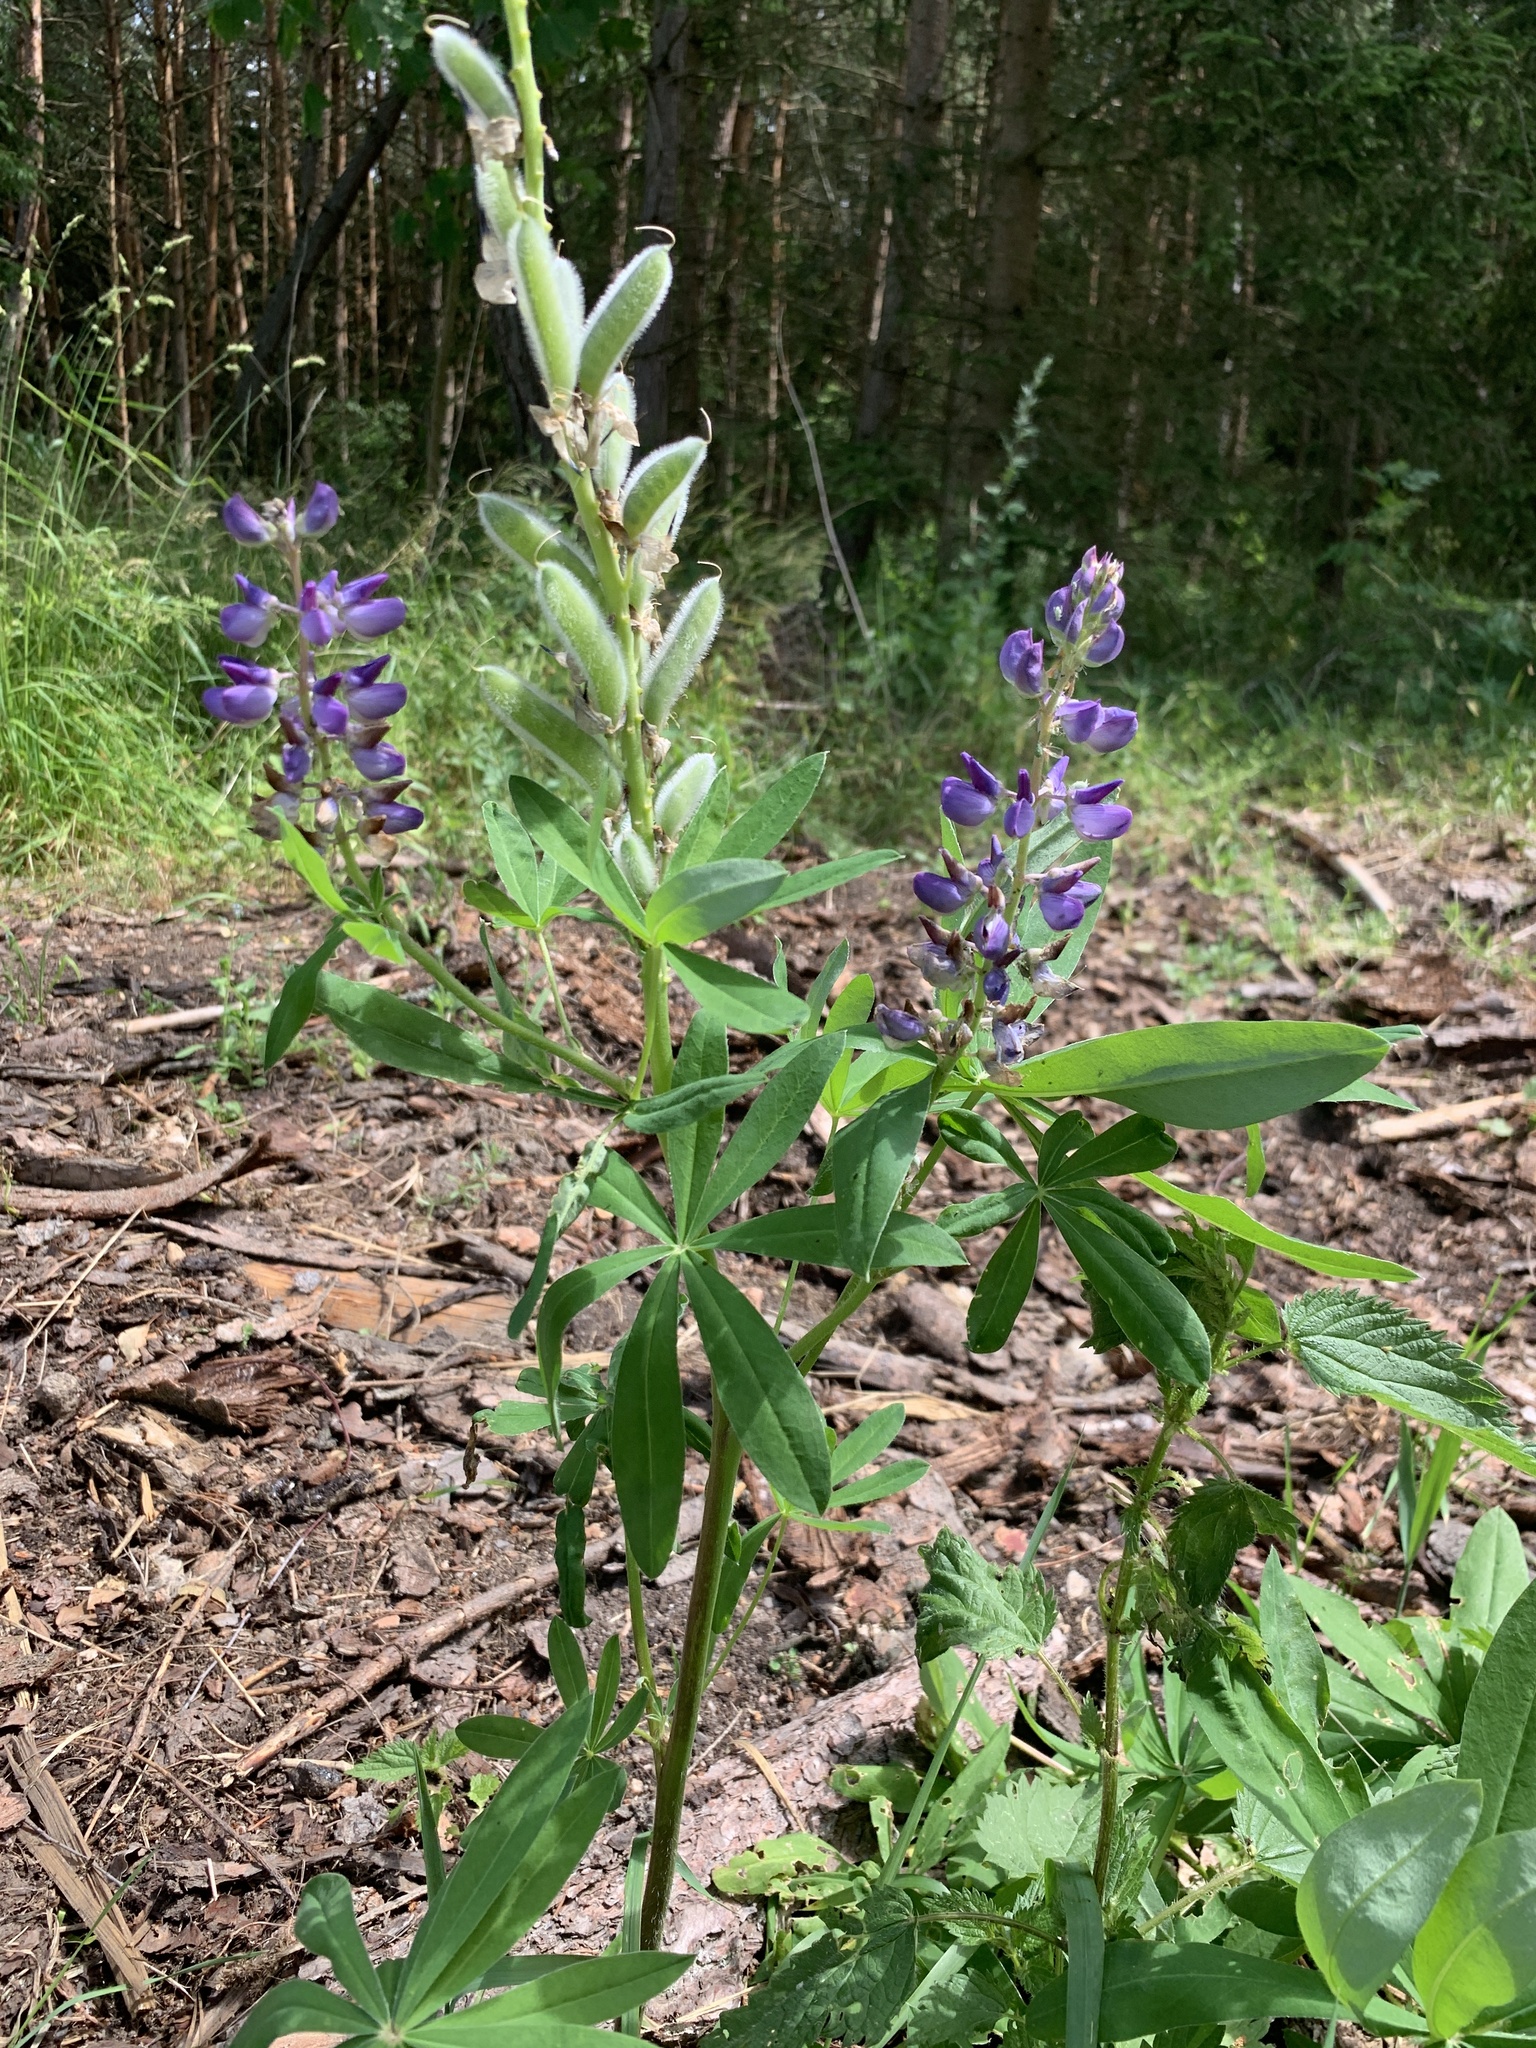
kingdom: Plantae
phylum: Tracheophyta
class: Magnoliopsida
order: Fabales
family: Fabaceae
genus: Lupinus
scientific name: Lupinus polyphyllus
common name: Garden lupin
